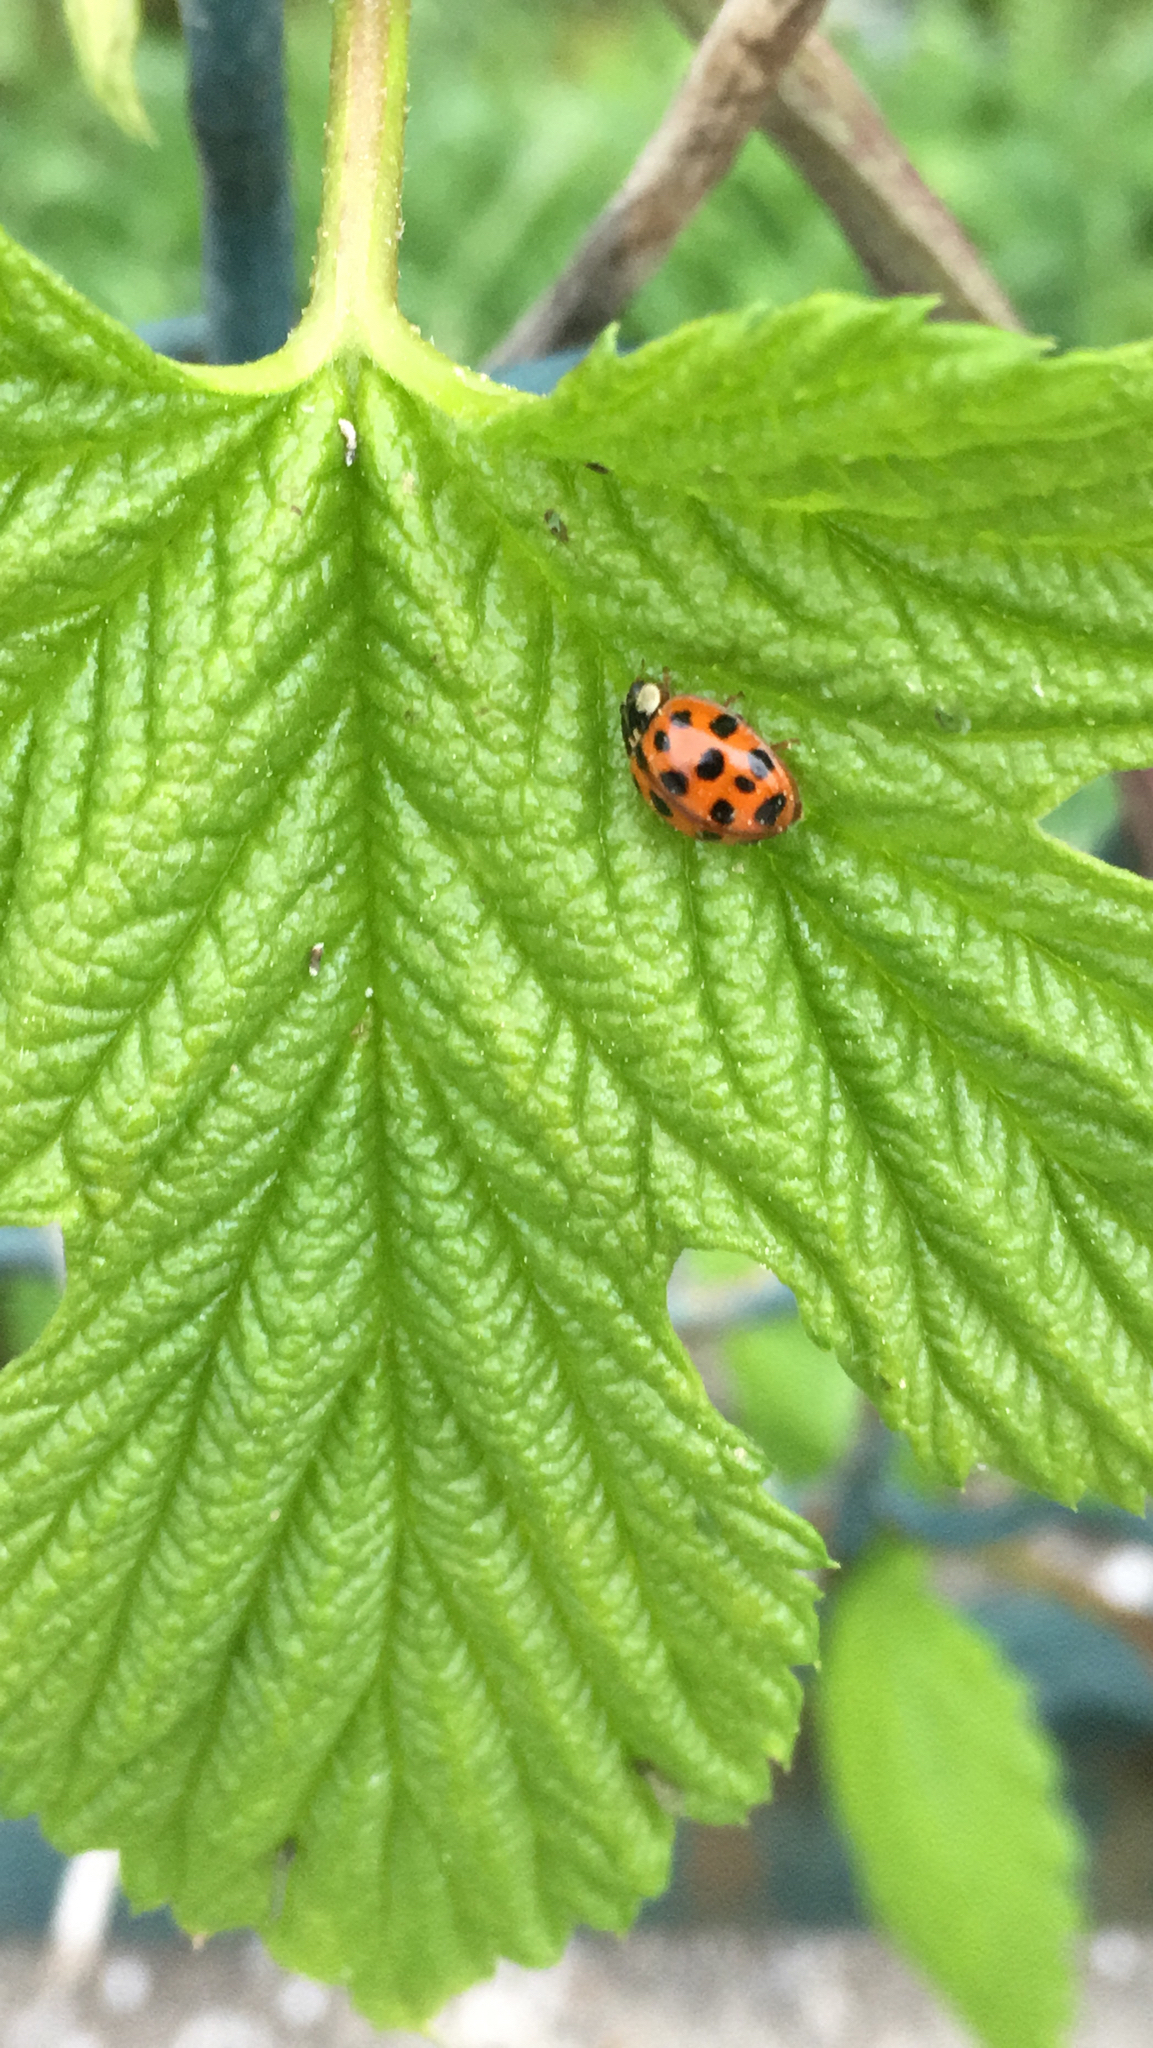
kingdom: Animalia
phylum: Arthropoda
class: Insecta
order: Coleoptera
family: Coccinellidae
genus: Harmonia
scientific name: Harmonia axyridis
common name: Harlequin ladybird
